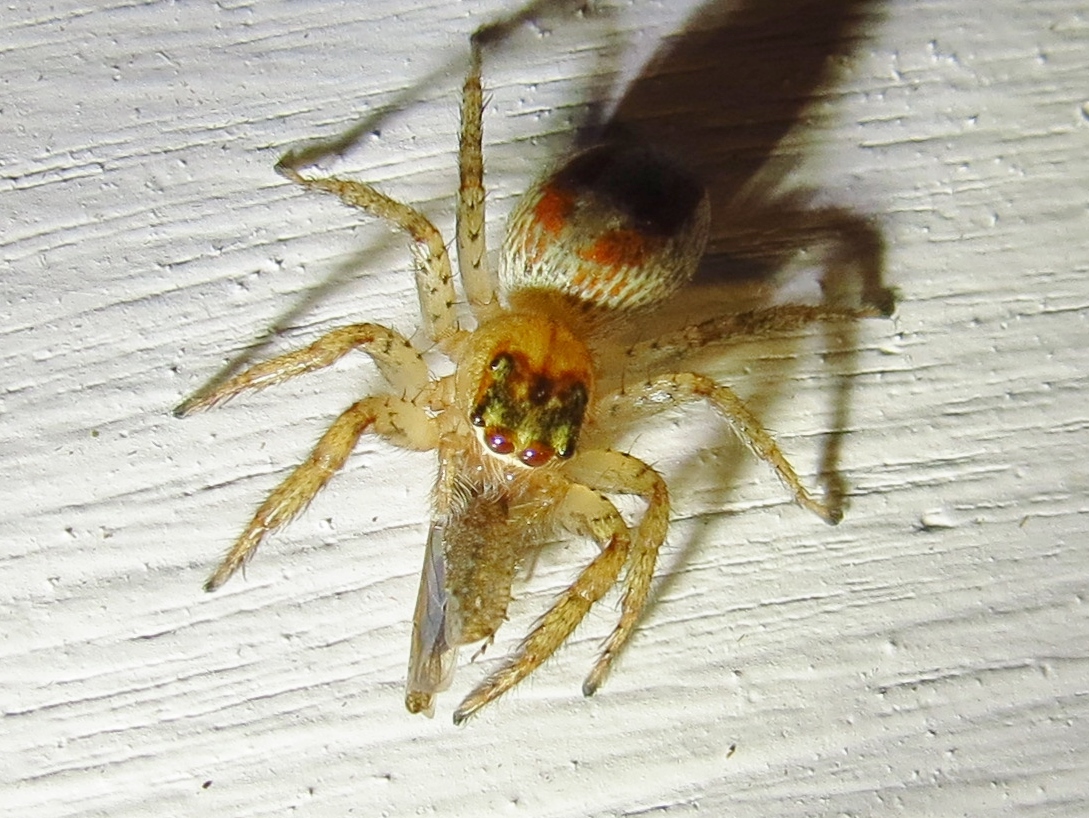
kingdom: Animalia
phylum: Arthropoda
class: Arachnida
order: Araneae
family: Salticidae
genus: Maevia
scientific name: Maevia inclemens
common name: Dimorphic jumper
